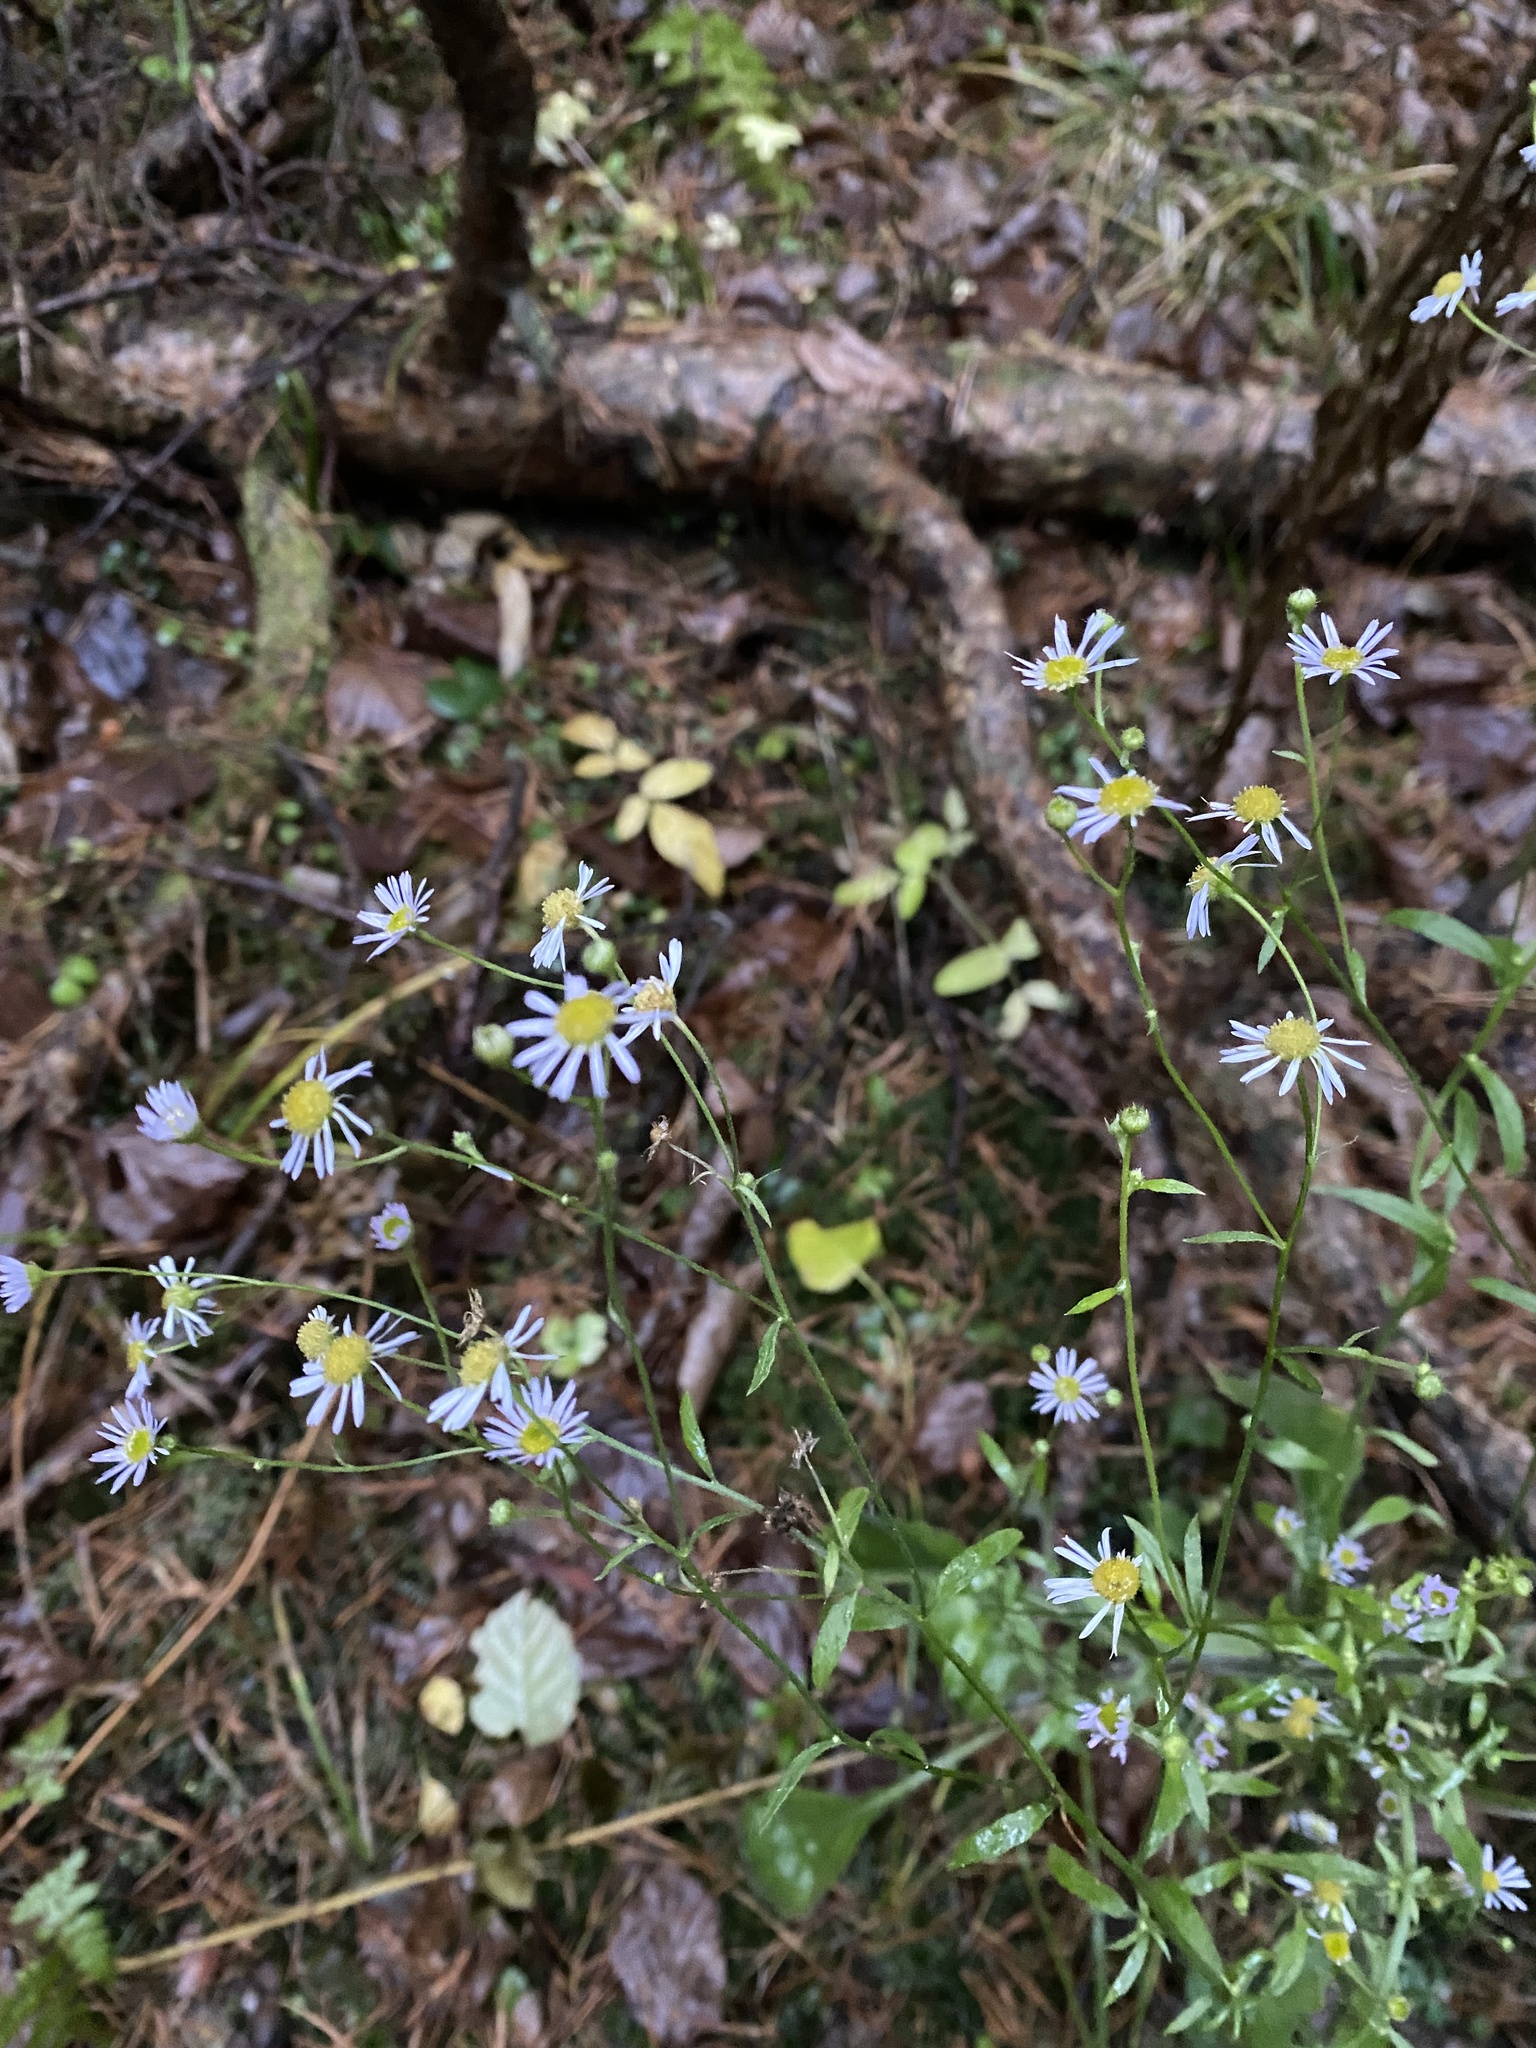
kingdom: Plantae
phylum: Tracheophyta
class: Magnoliopsida
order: Asterales
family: Asteraceae
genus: Erigeron
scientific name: Erigeron annuus
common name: Tall fleabane
